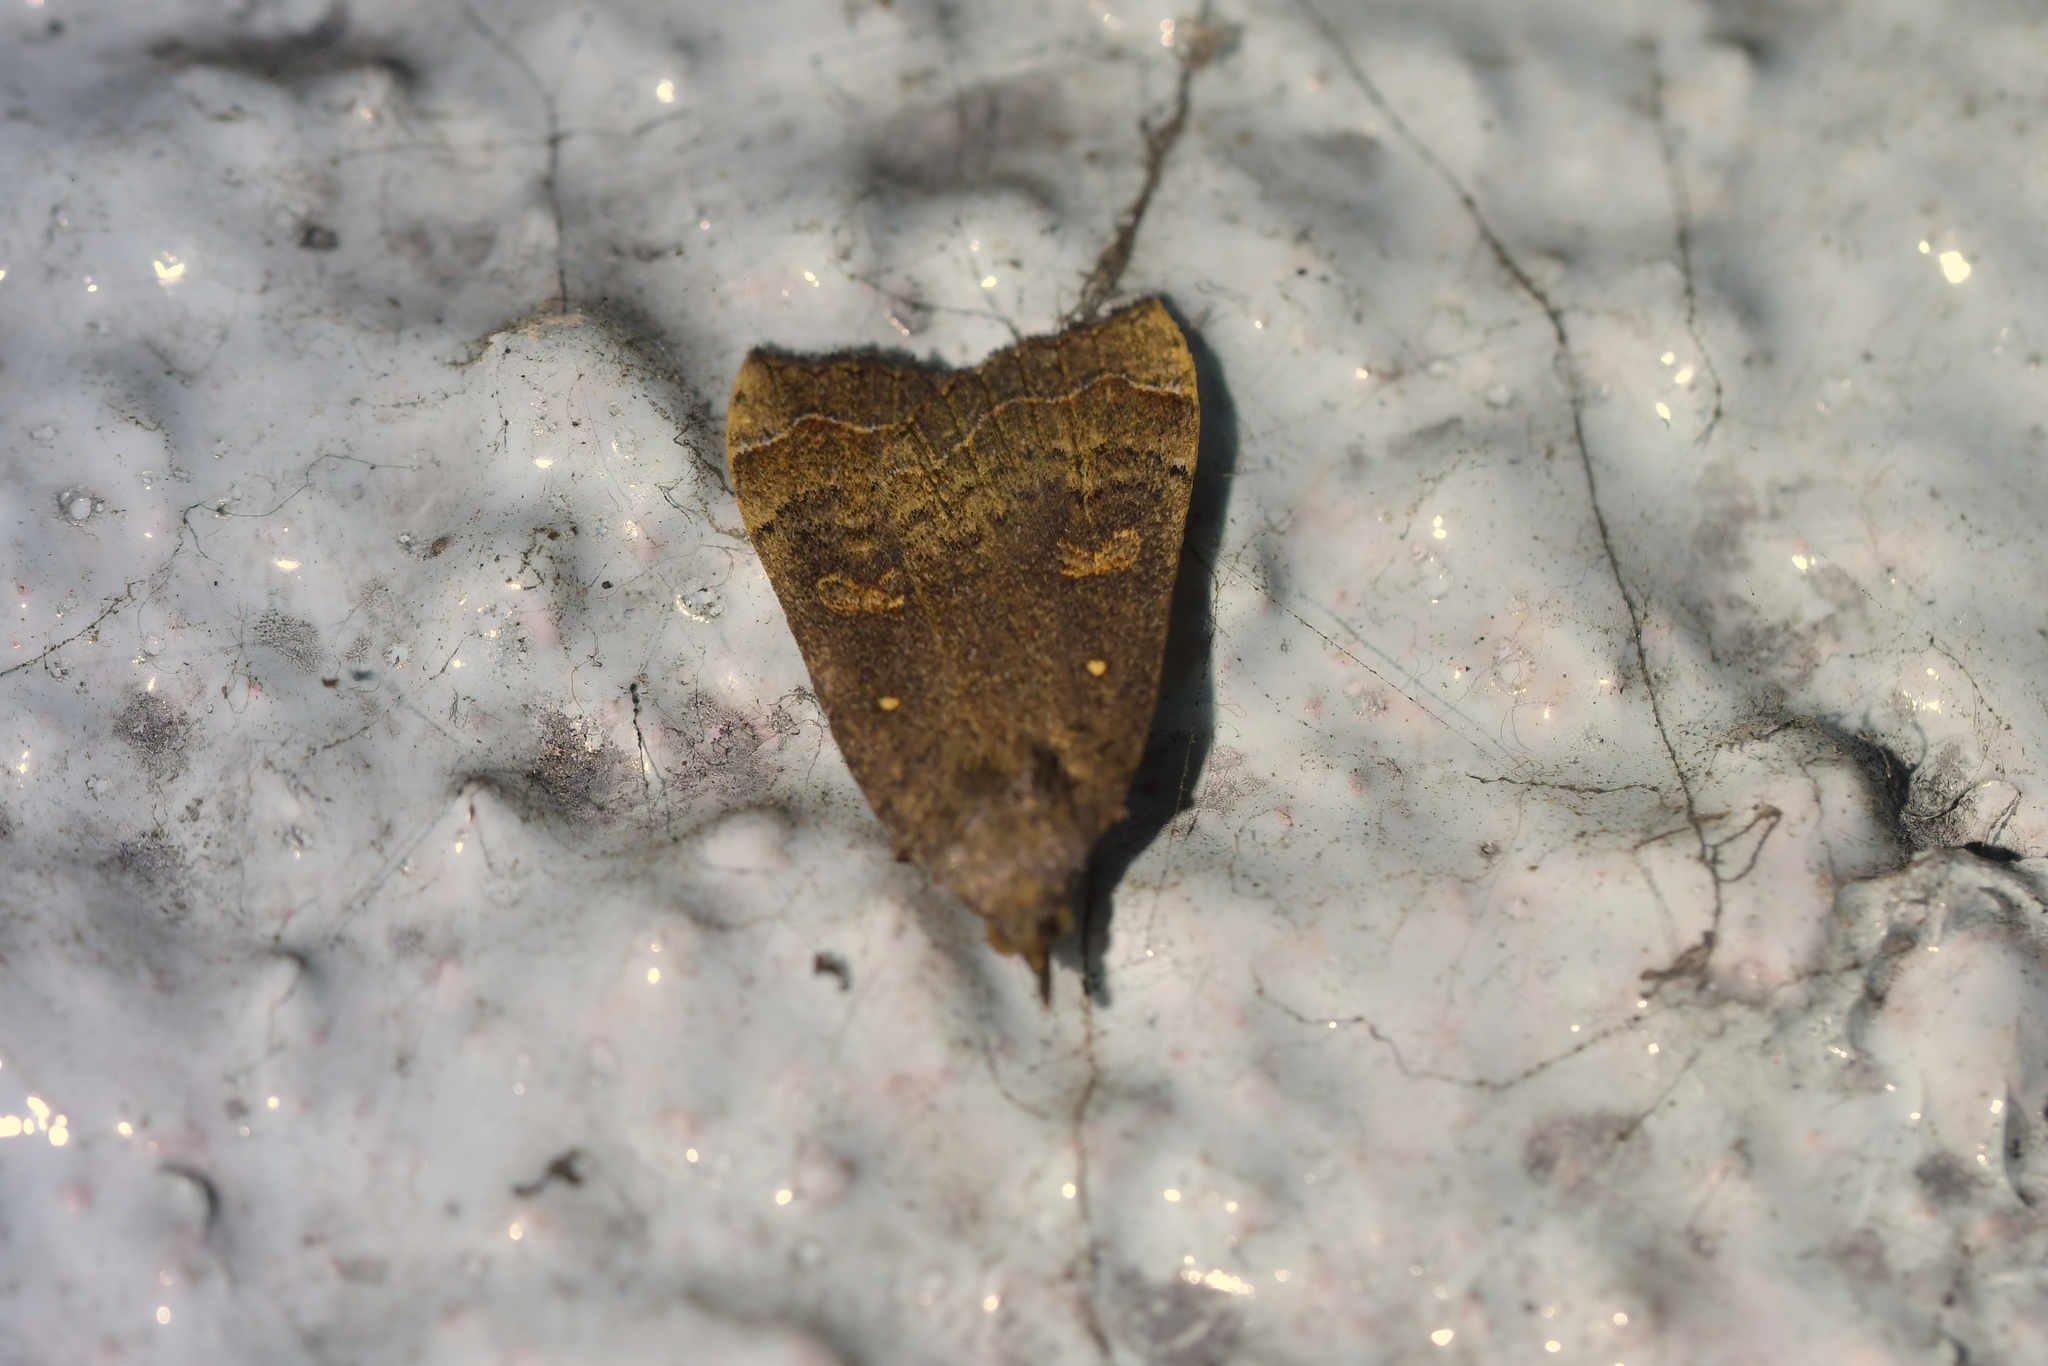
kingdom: Animalia
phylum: Arthropoda
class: Insecta
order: Lepidoptera
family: Erebidae
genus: Rhapsa
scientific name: Rhapsa scotosialis
